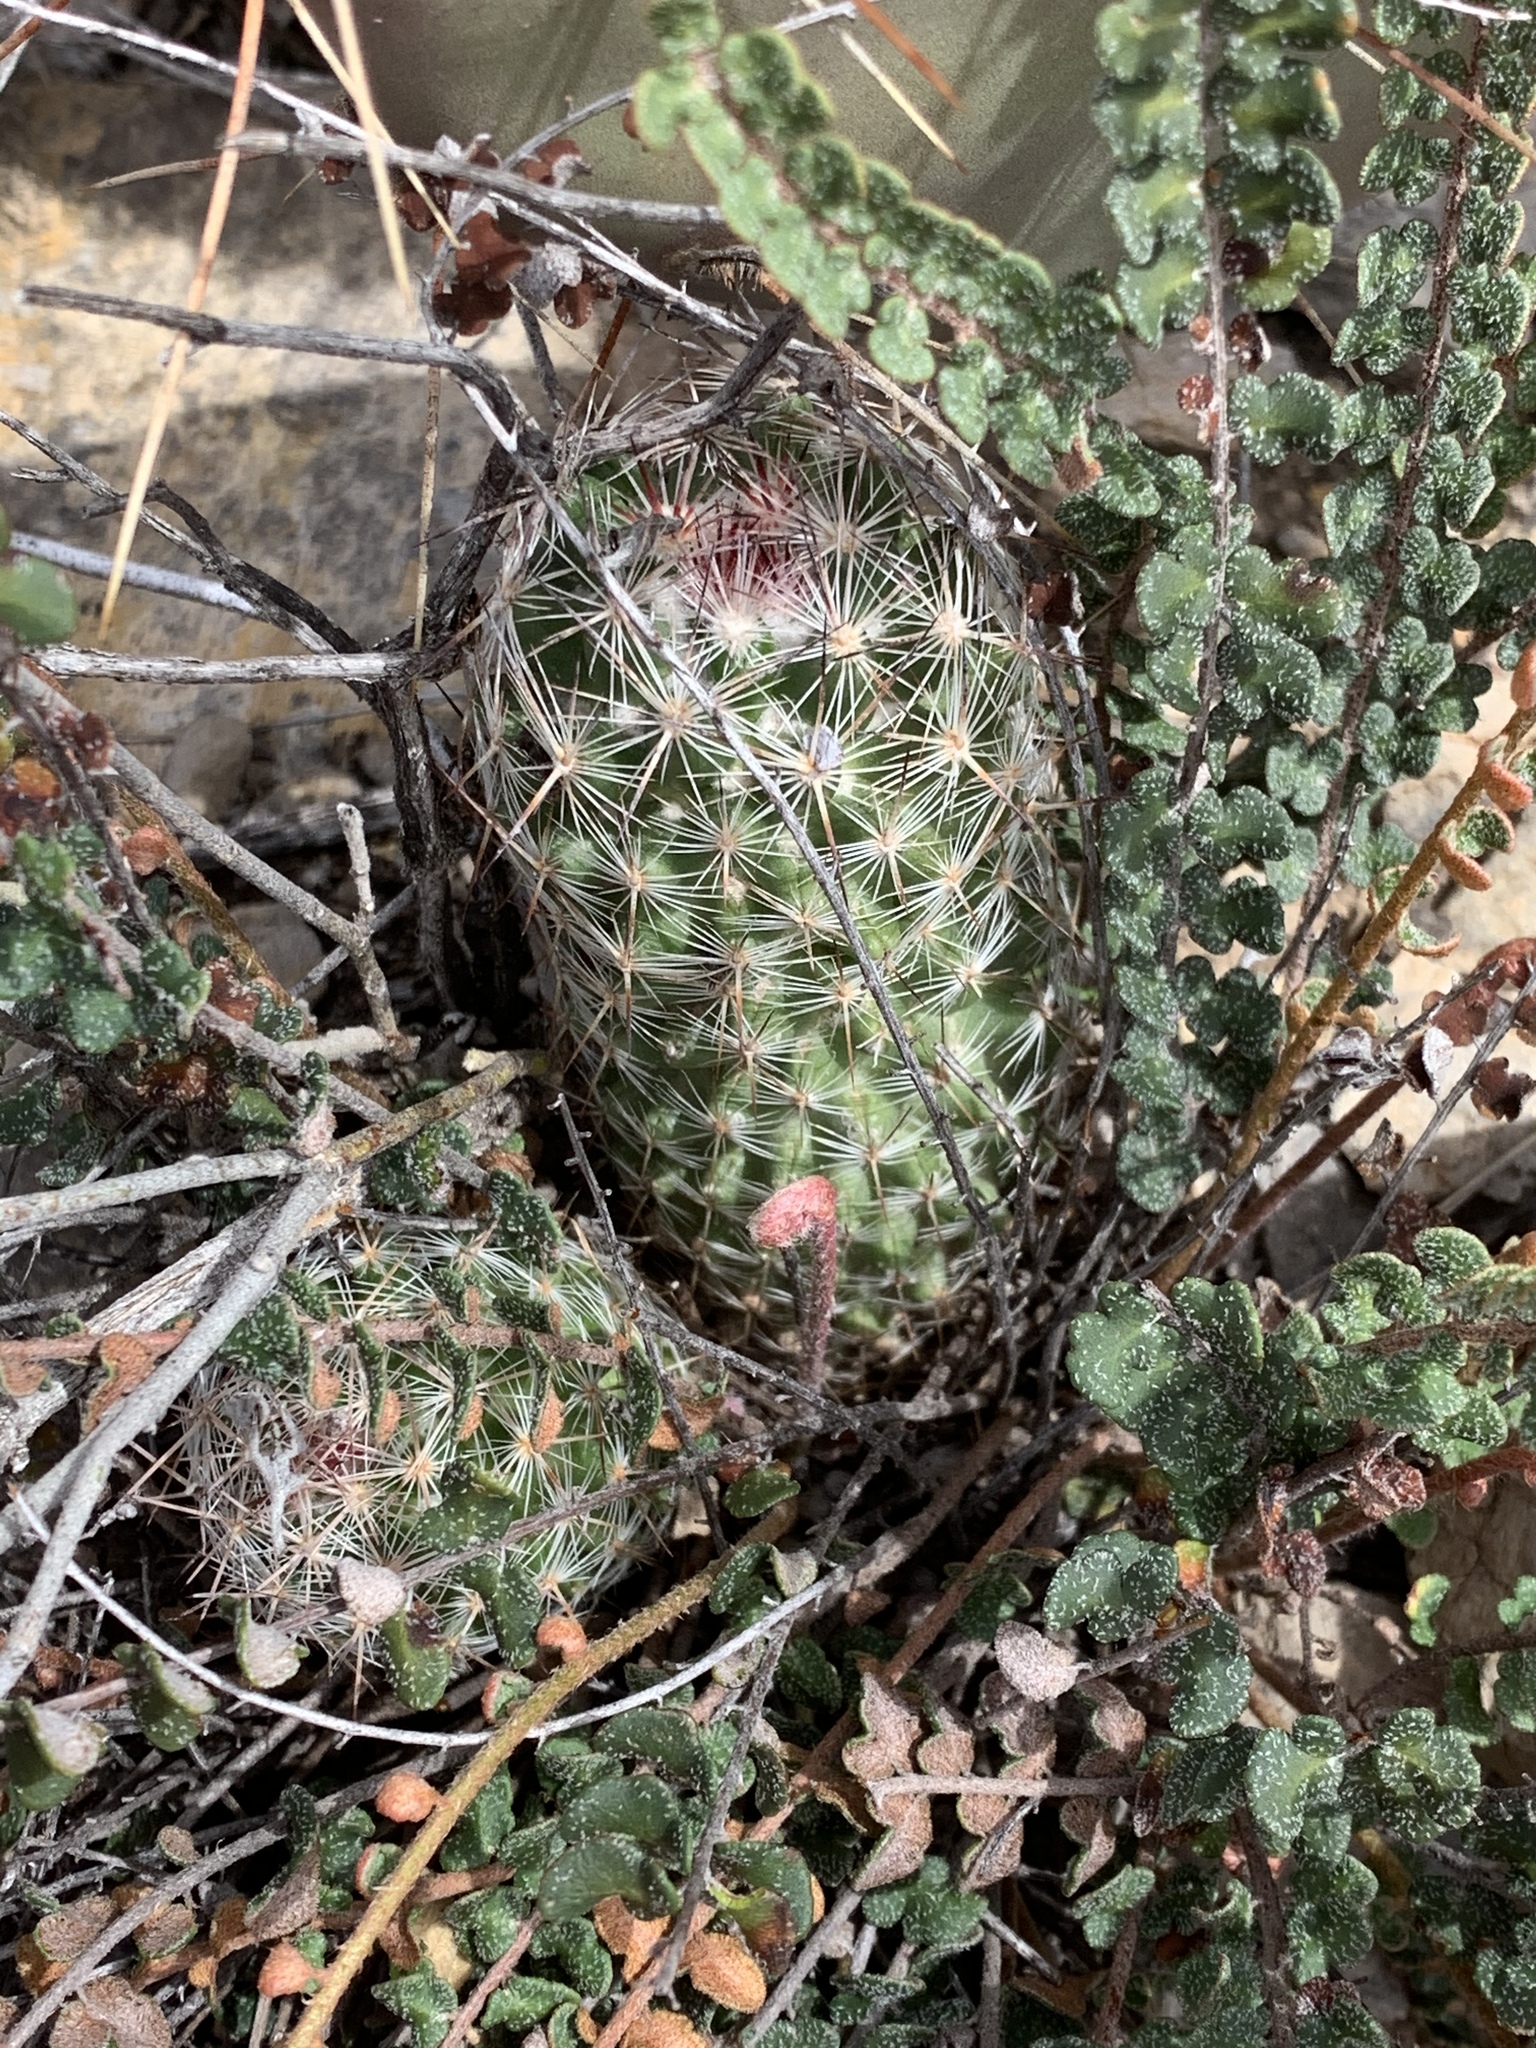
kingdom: Plantae
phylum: Tracheophyta
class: Magnoliopsida
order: Caryophyllales
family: Cactaceae
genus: Pelecyphora
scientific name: Pelecyphora tuberculosa
